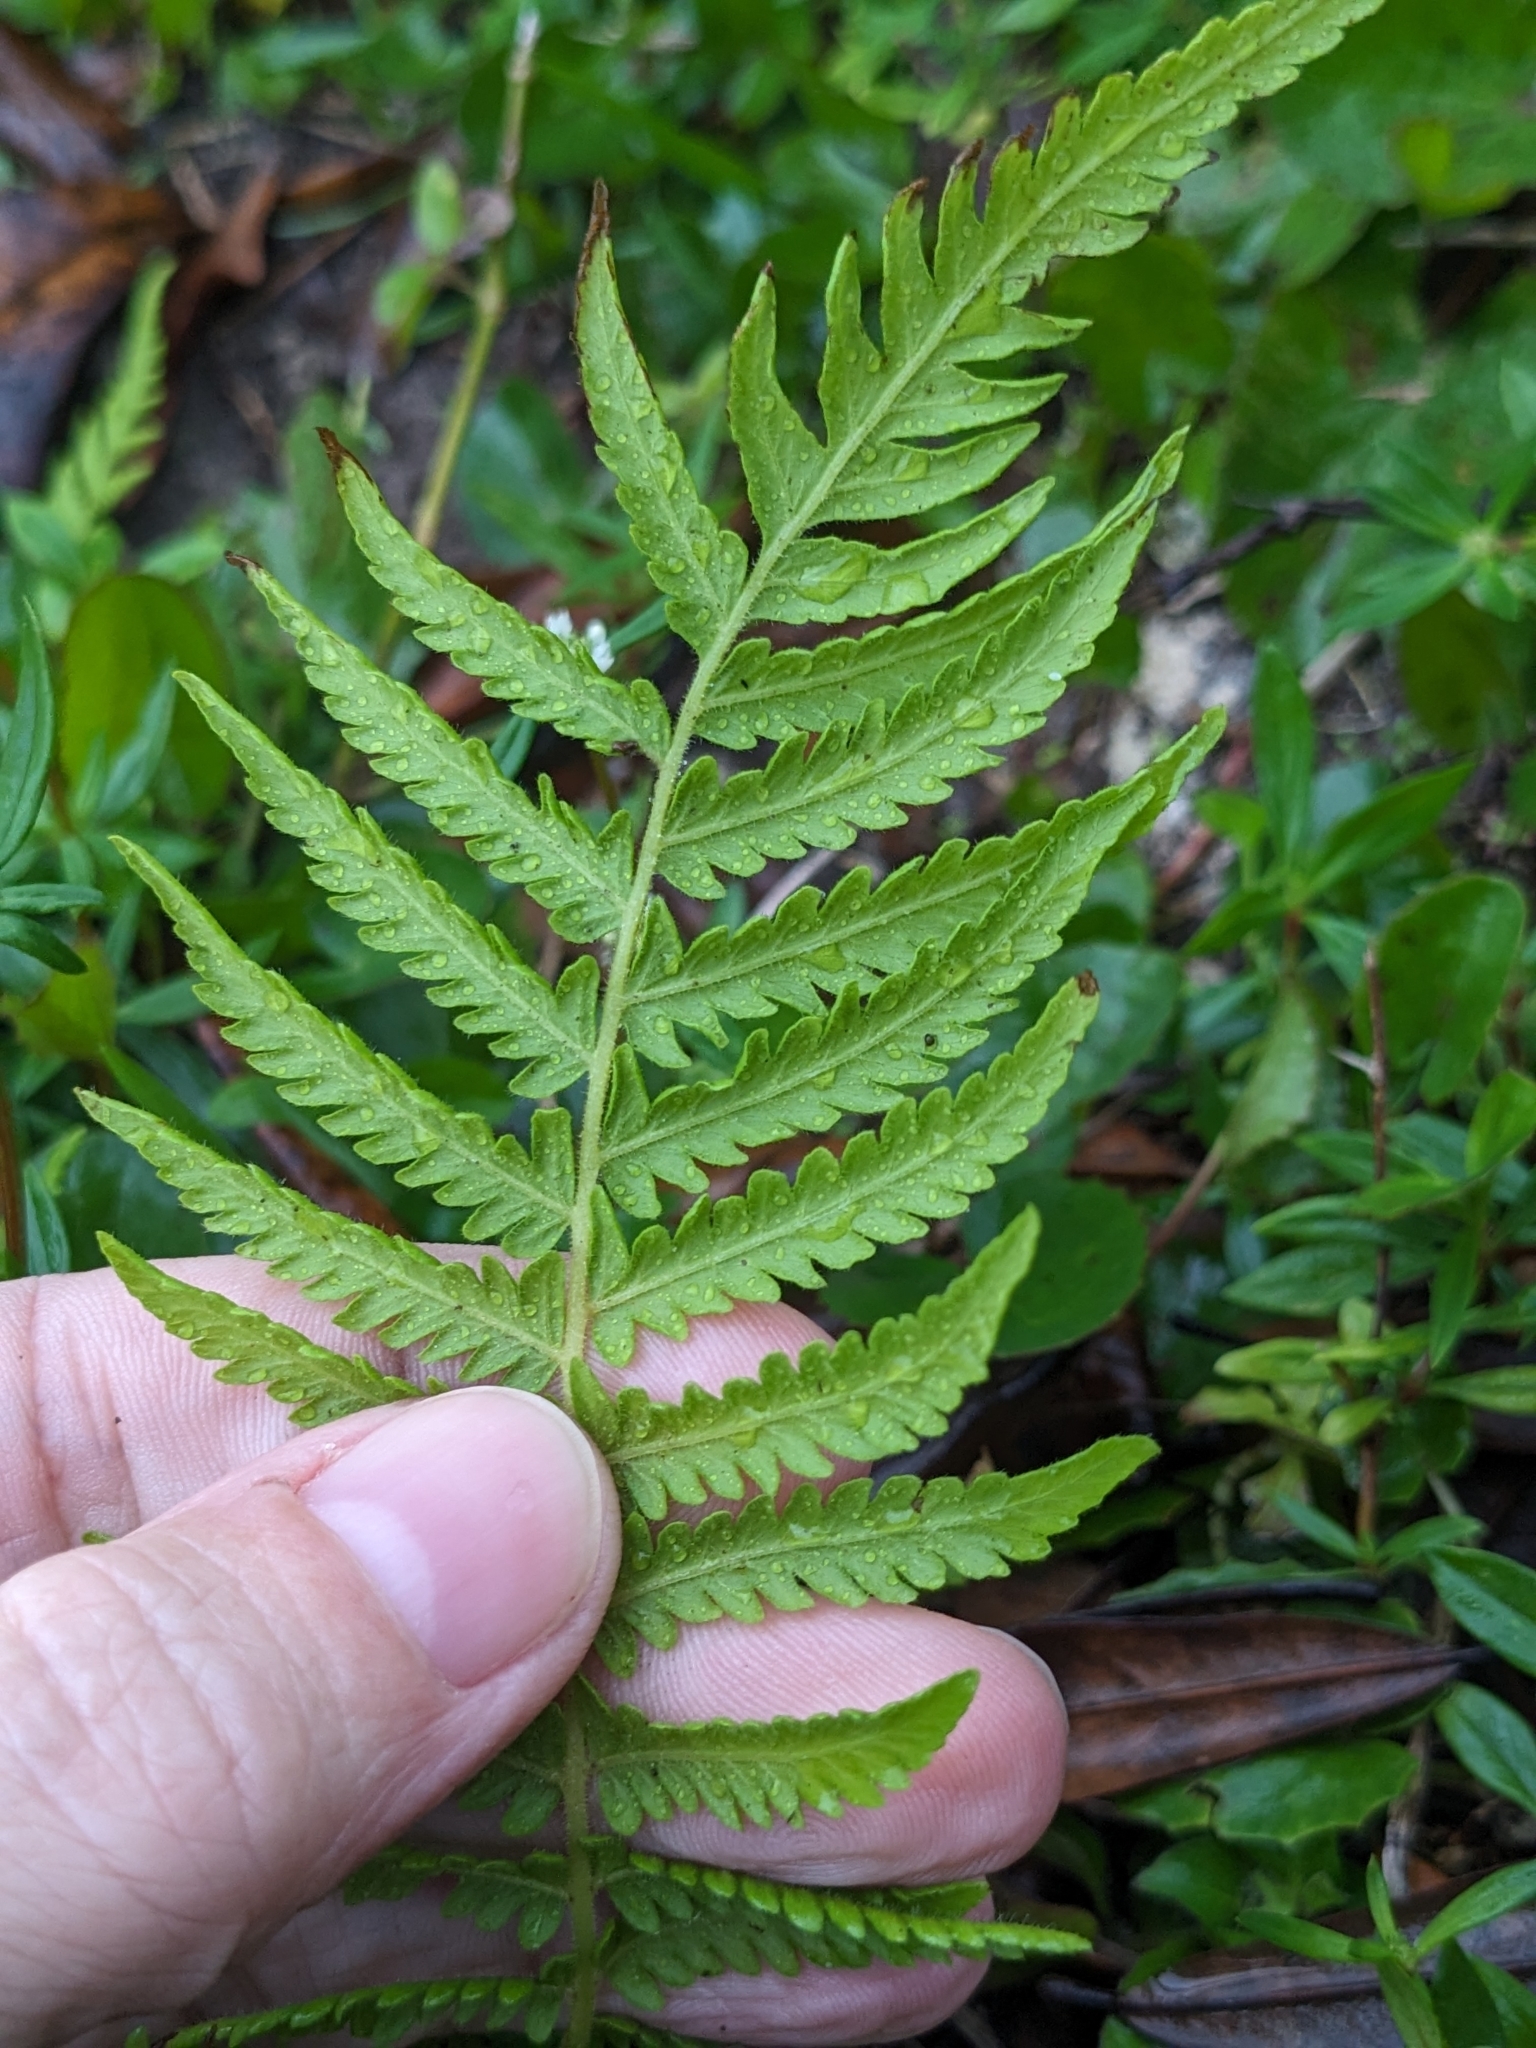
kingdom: Plantae
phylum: Tracheophyta
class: Polypodiopsida
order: Polypodiales
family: Thelypteridaceae
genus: Pelazoneuron
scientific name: Pelazoneuron kunthii
